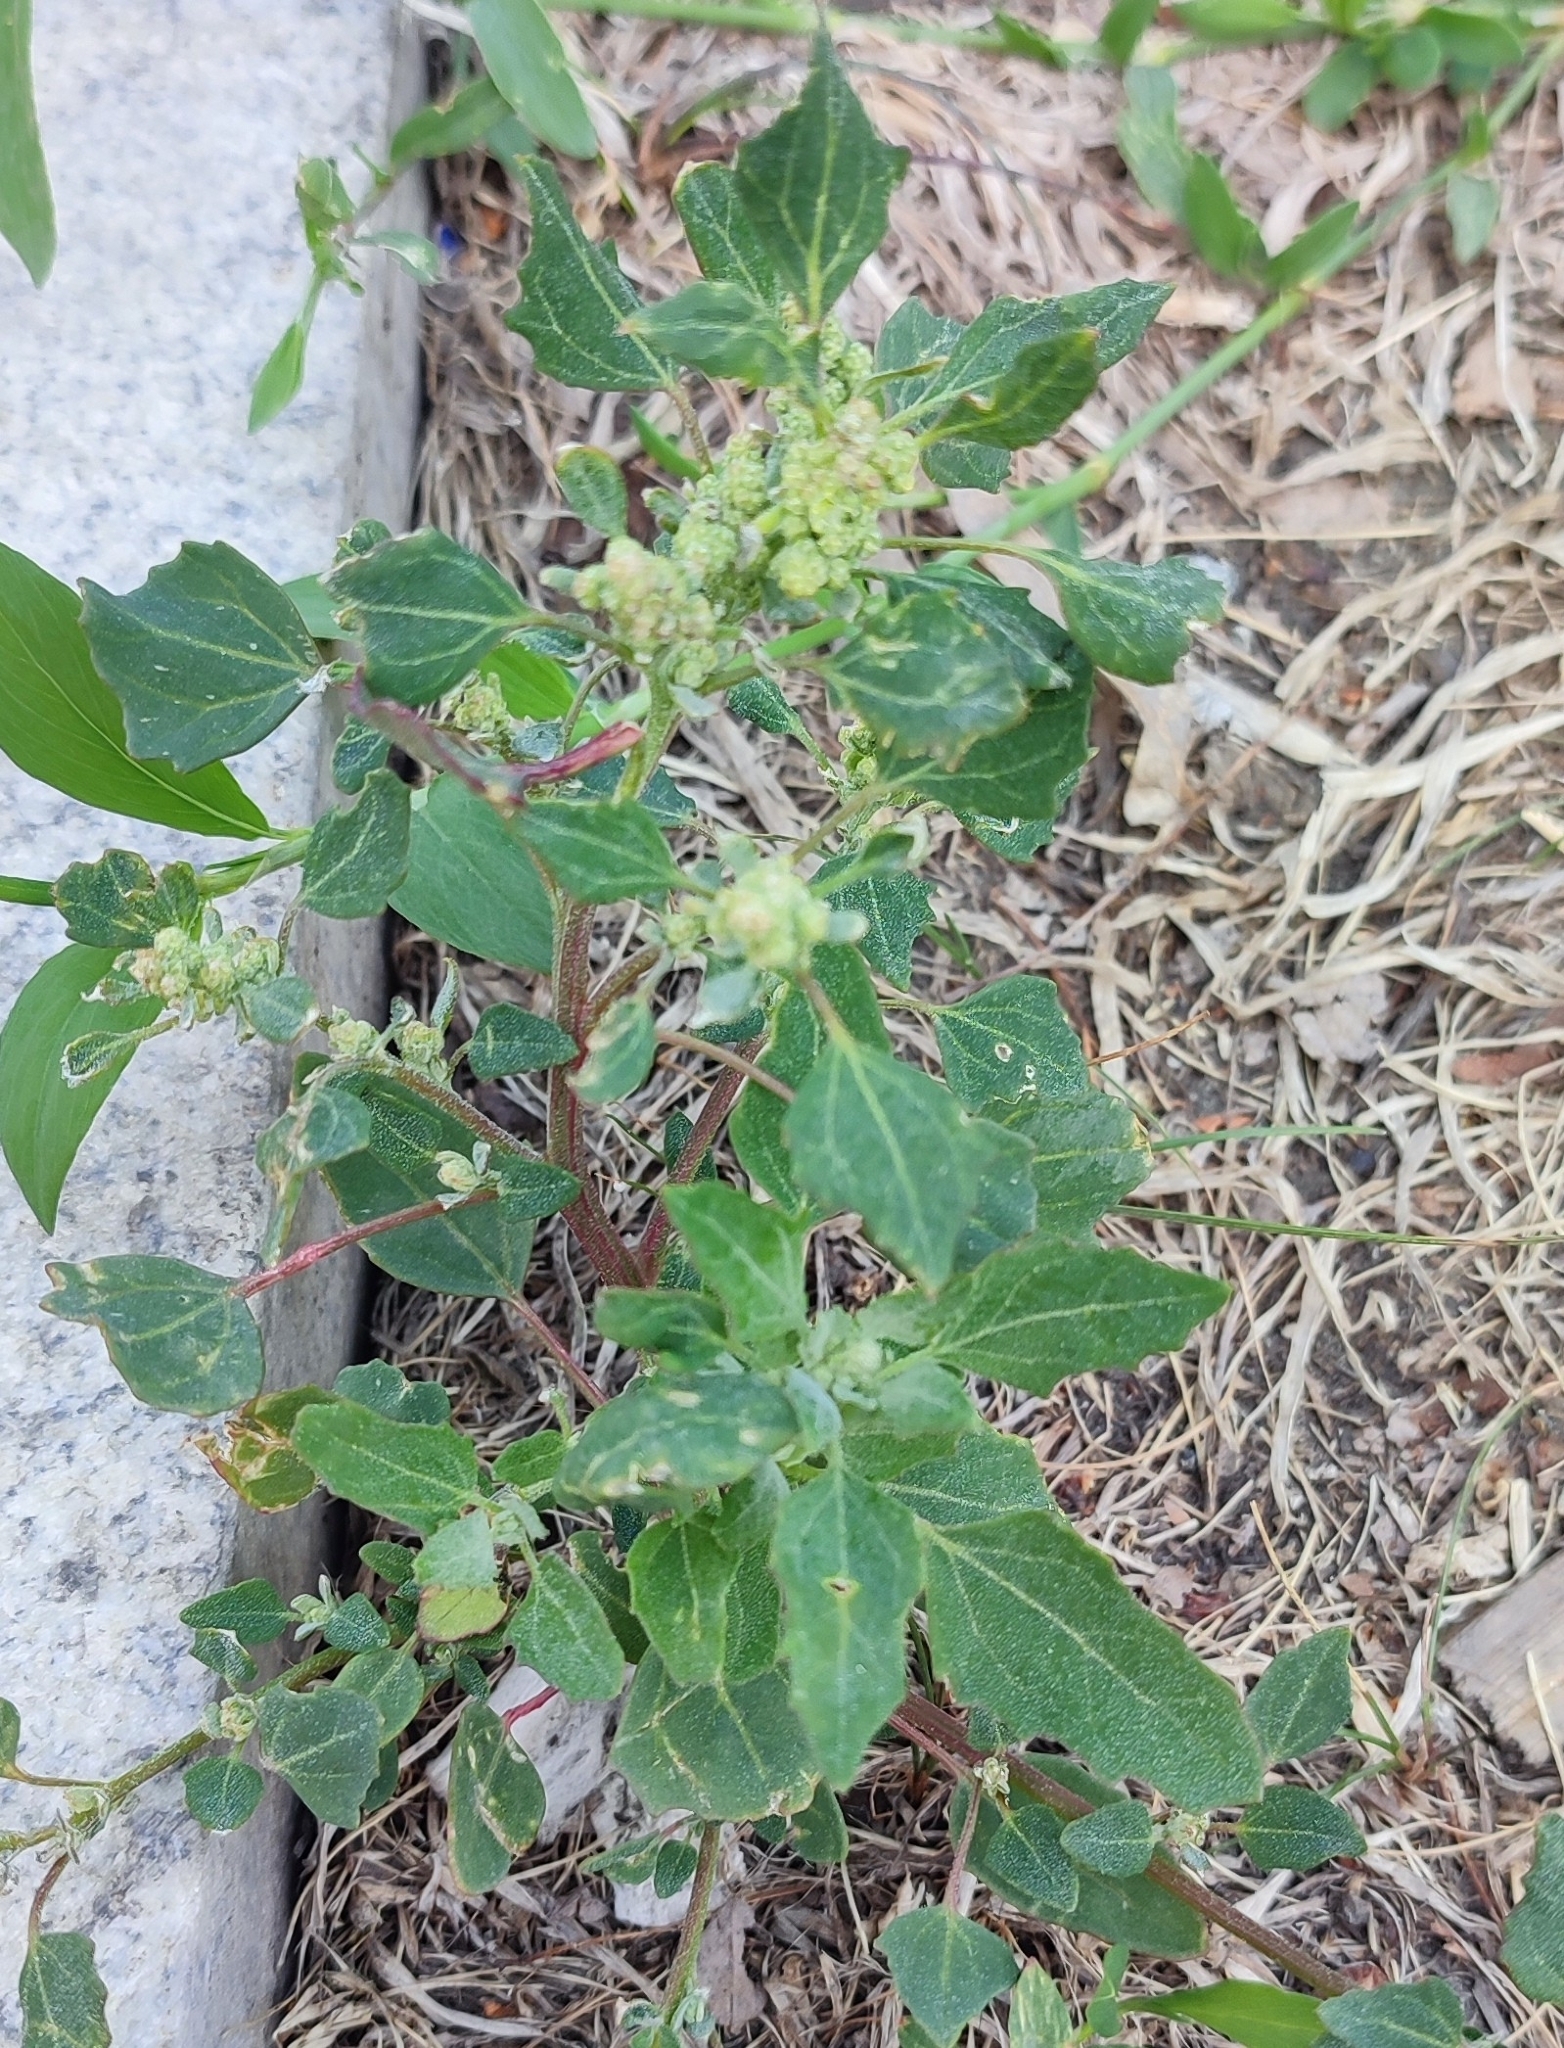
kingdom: Plantae
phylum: Tracheophyta
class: Magnoliopsida
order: Caryophyllales
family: Amaranthaceae
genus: Chenopodium
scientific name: Chenopodium album
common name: Fat-hen
